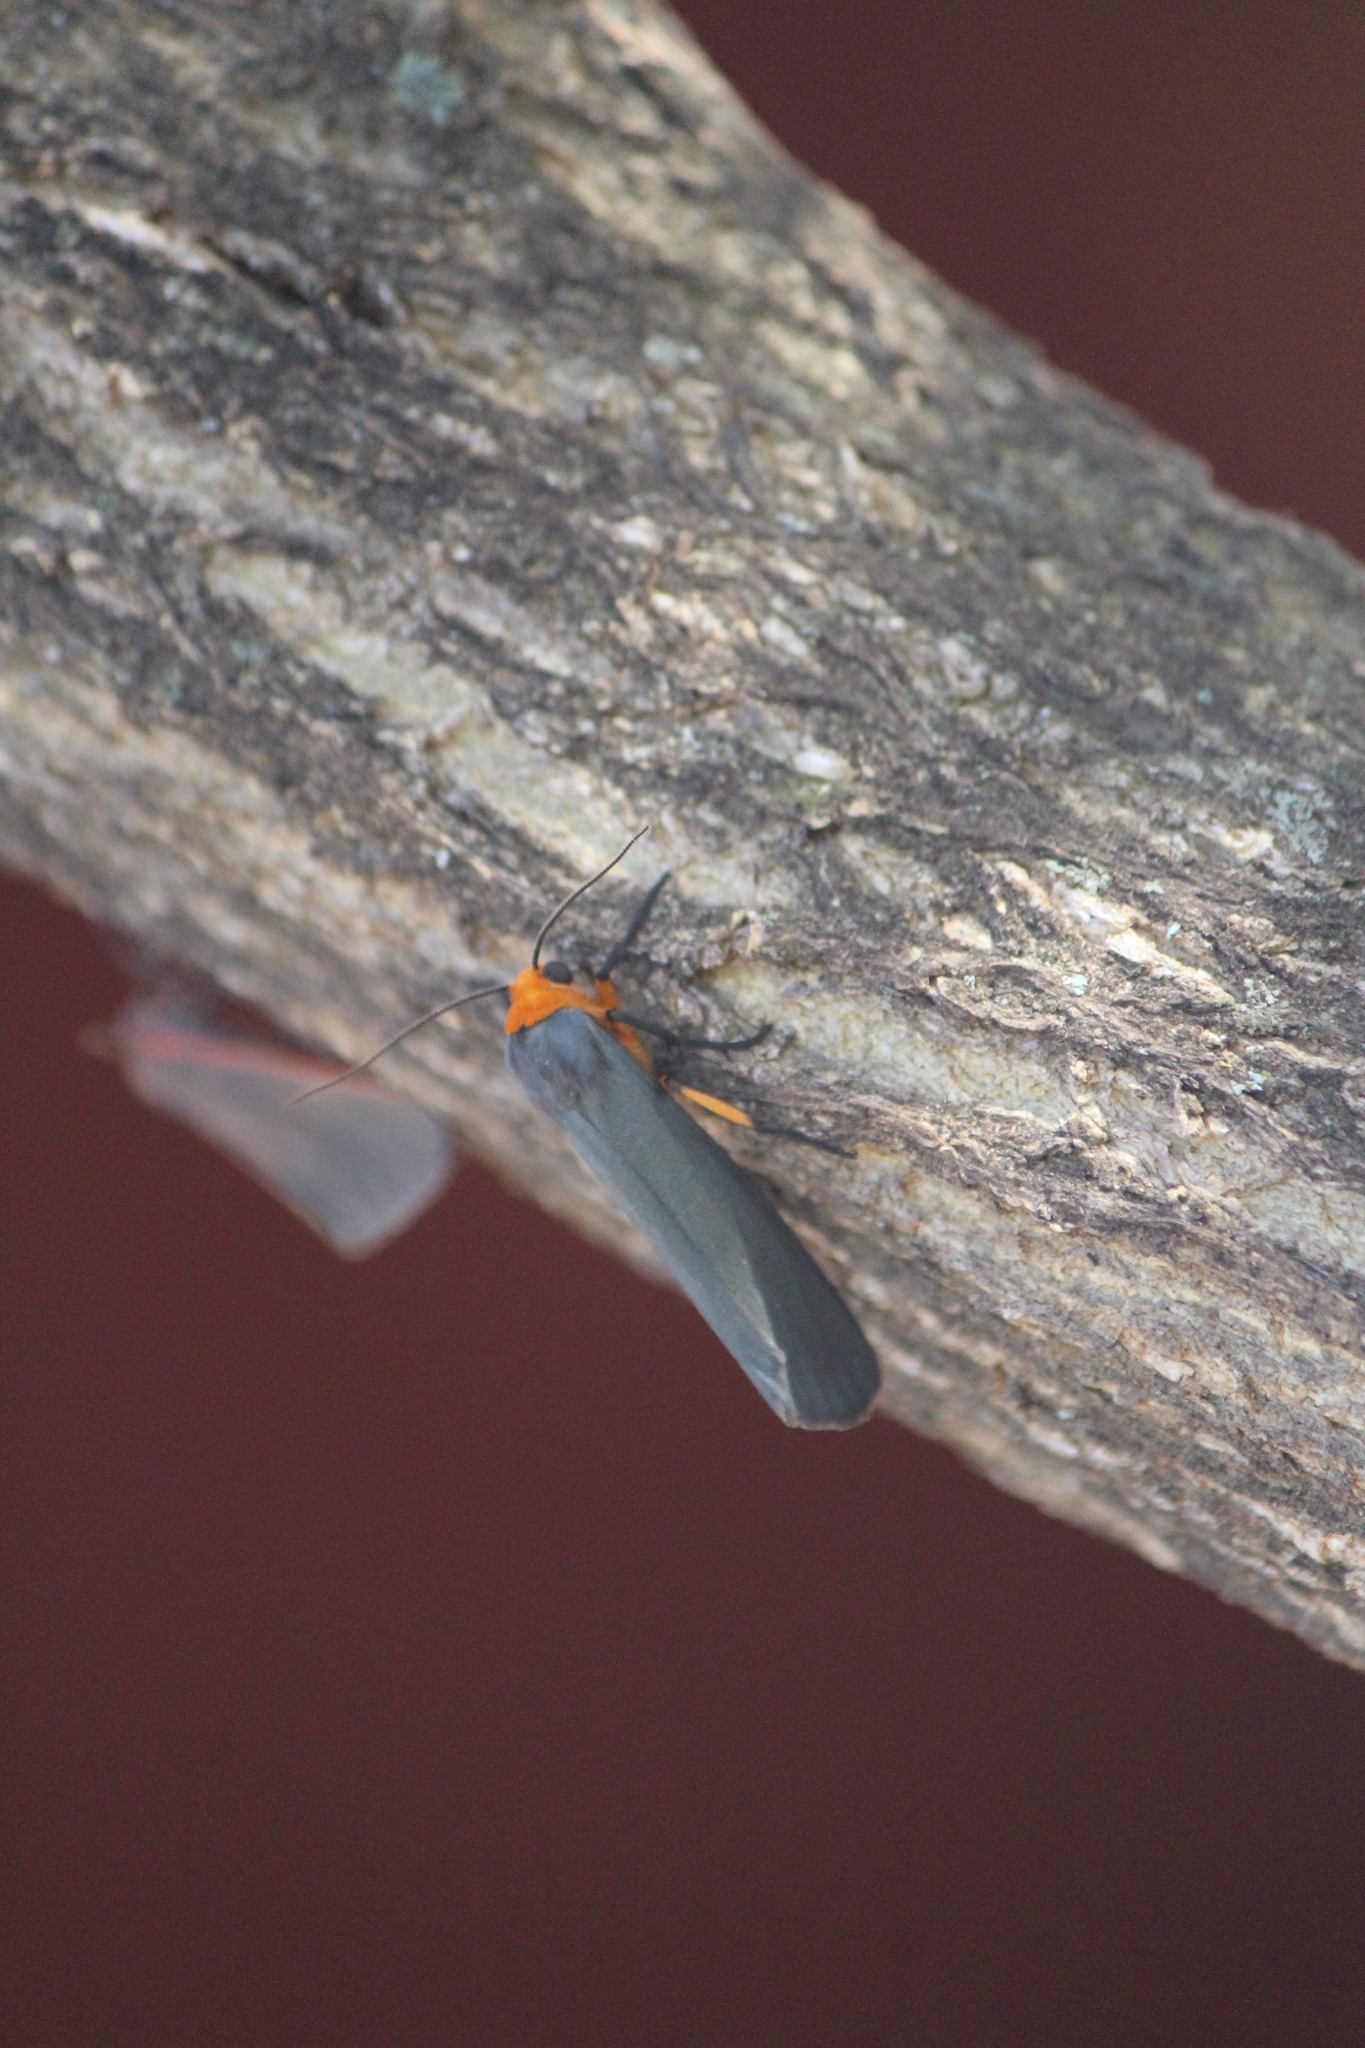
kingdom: Animalia
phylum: Arthropoda
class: Insecta
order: Lepidoptera
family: Erebidae
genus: Gnamptonychia
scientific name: Gnamptonychia ventralis
